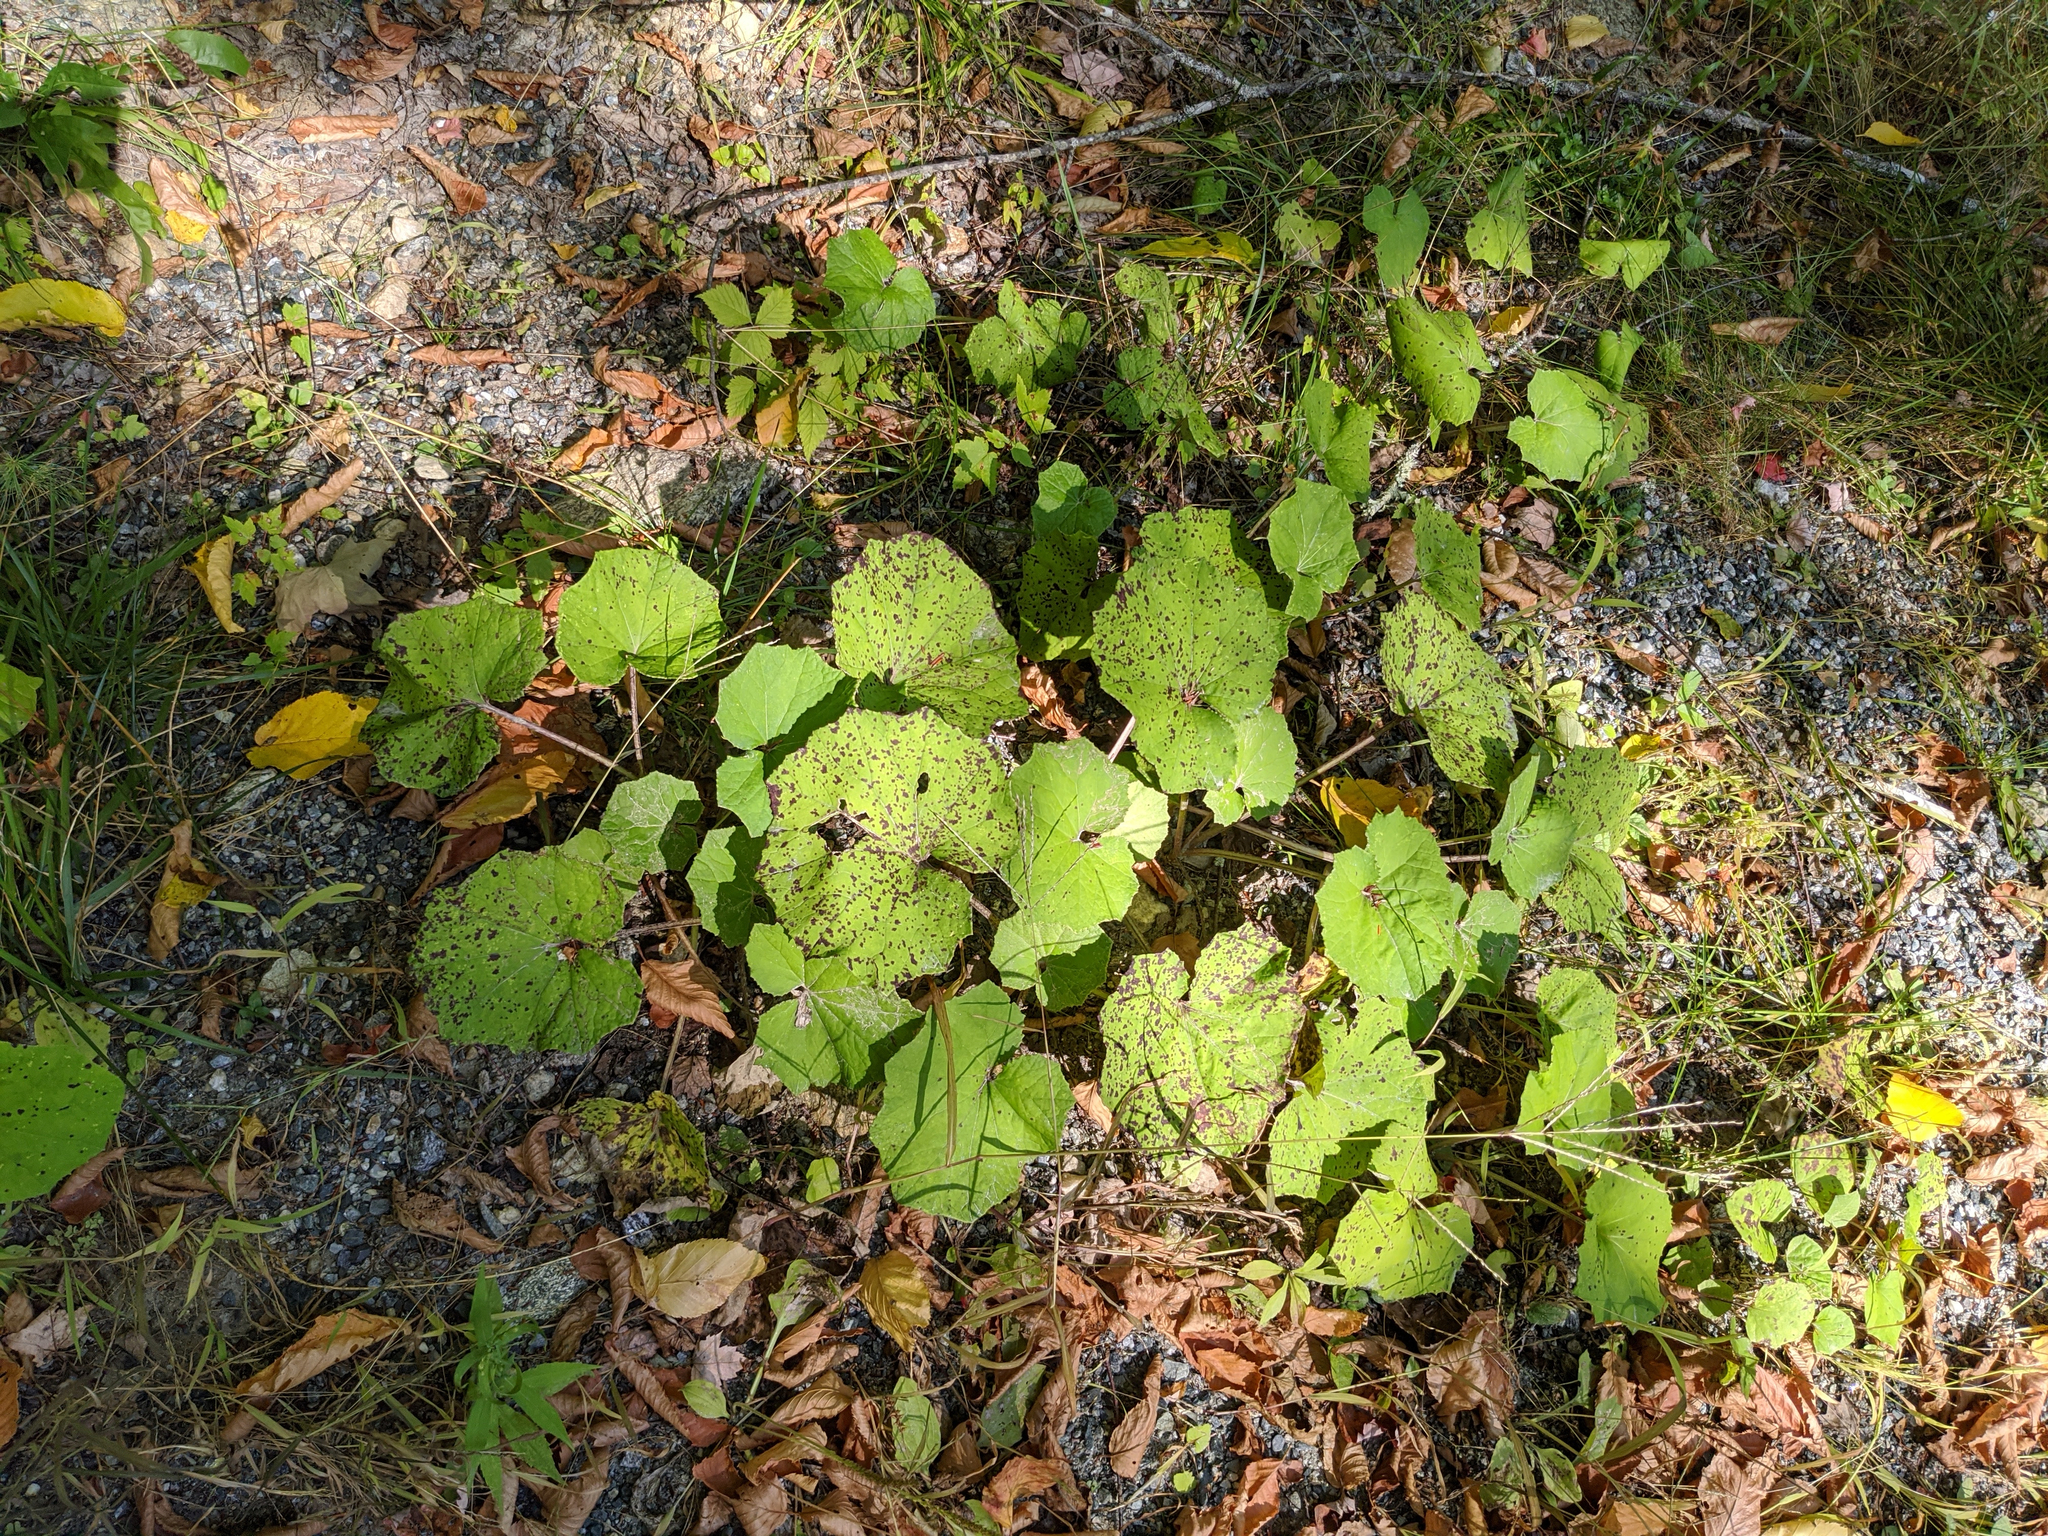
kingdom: Plantae
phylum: Tracheophyta
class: Magnoliopsida
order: Asterales
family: Asteraceae
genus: Tussilago
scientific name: Tussilago farfara
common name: Coltsfoot
